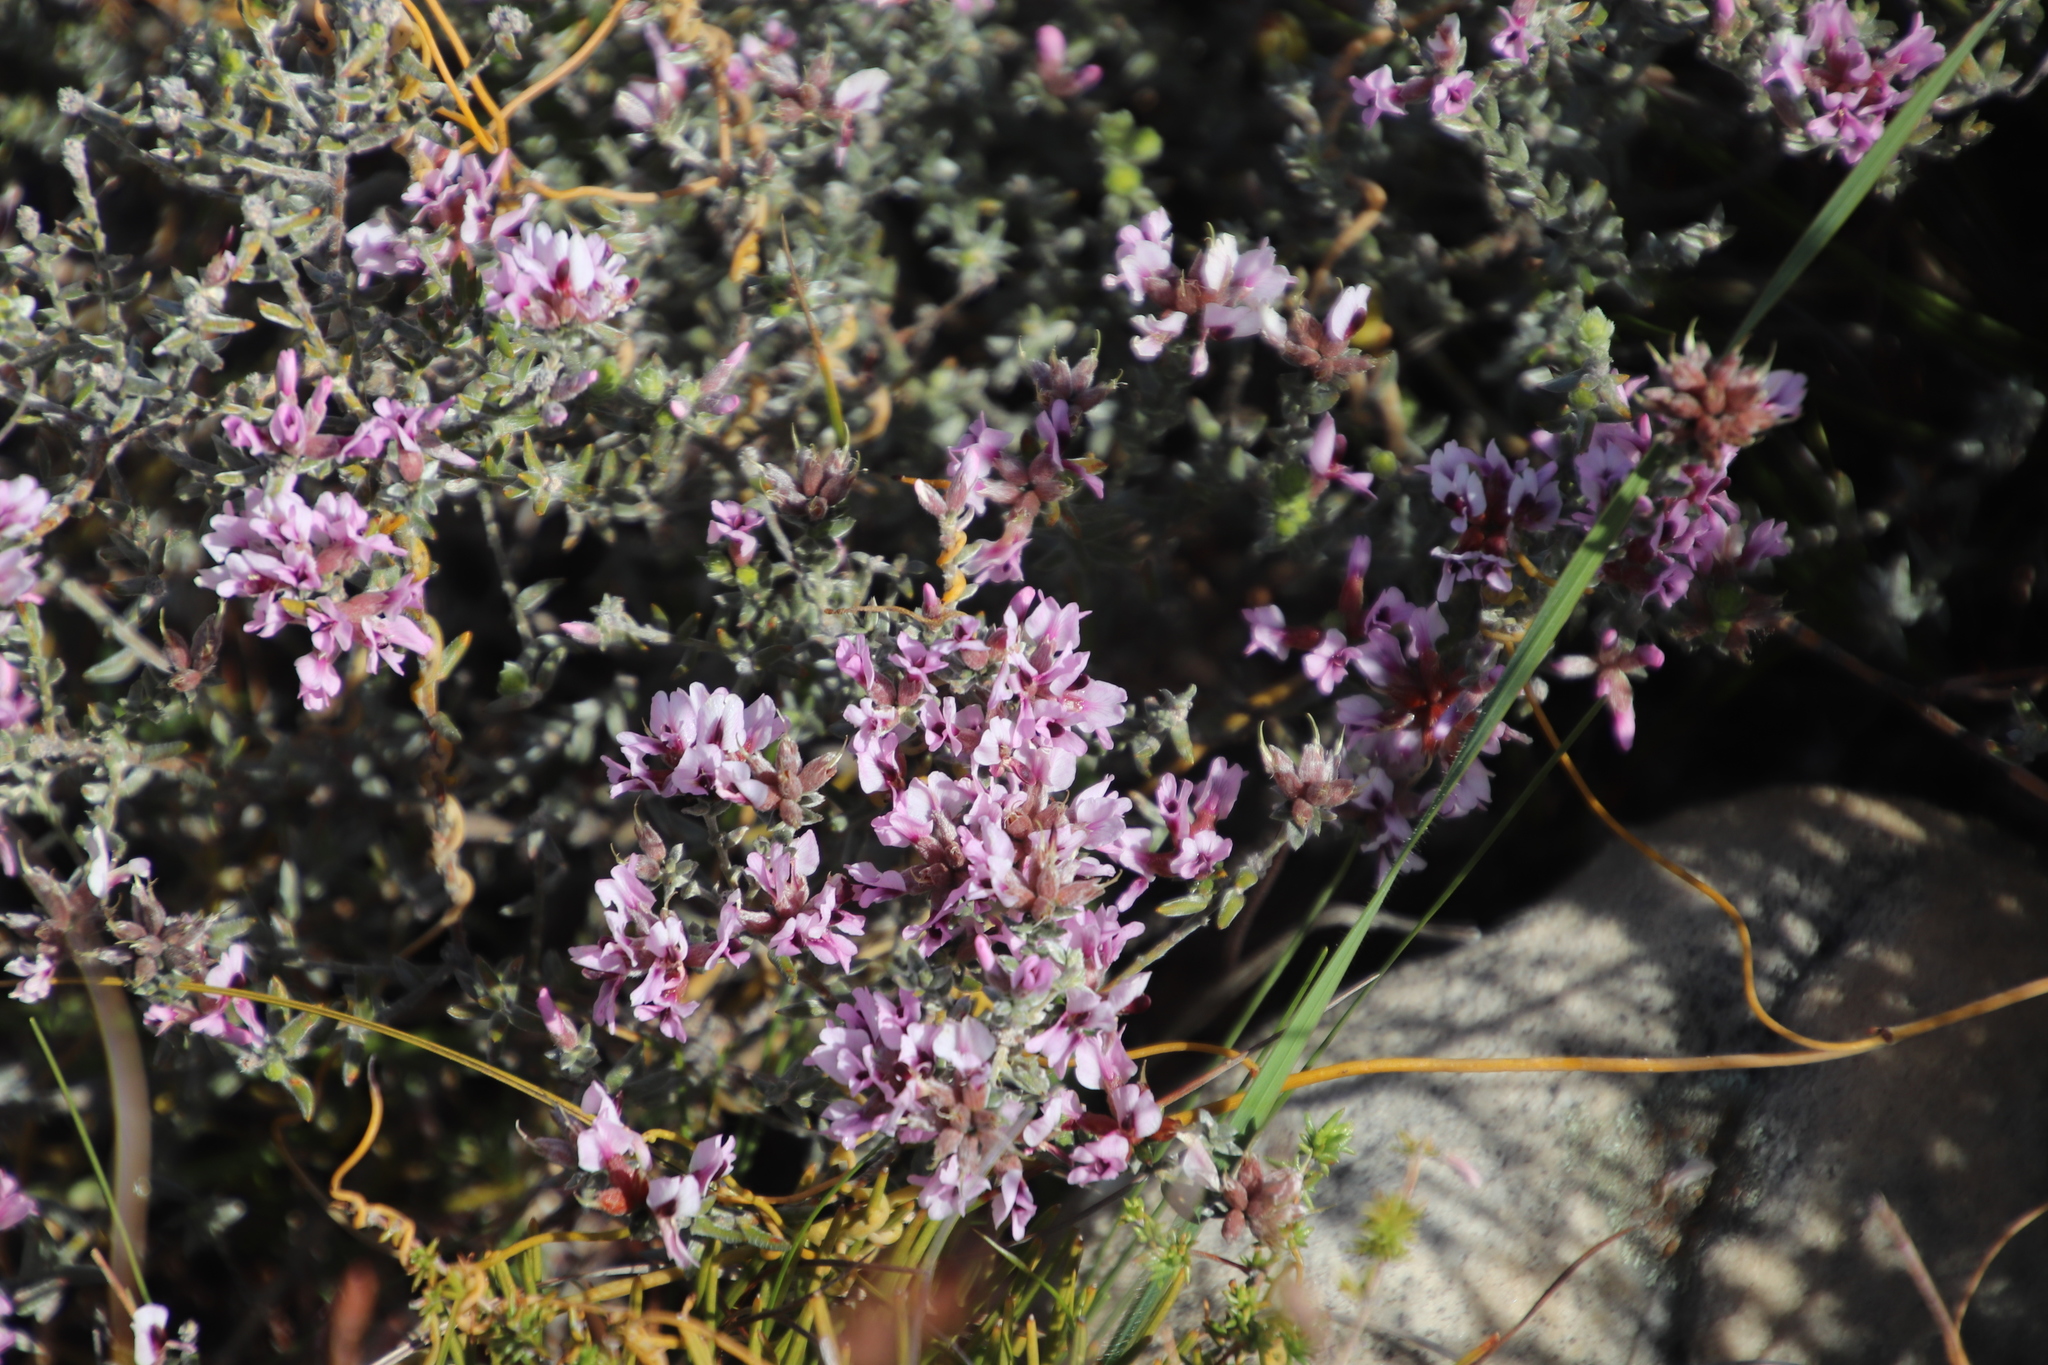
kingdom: Plantae
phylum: Tracheophyta
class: Magnoliopsida
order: Fabales
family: Fabaceae
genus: Amphithalea
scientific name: Amphithalea ericifolia
